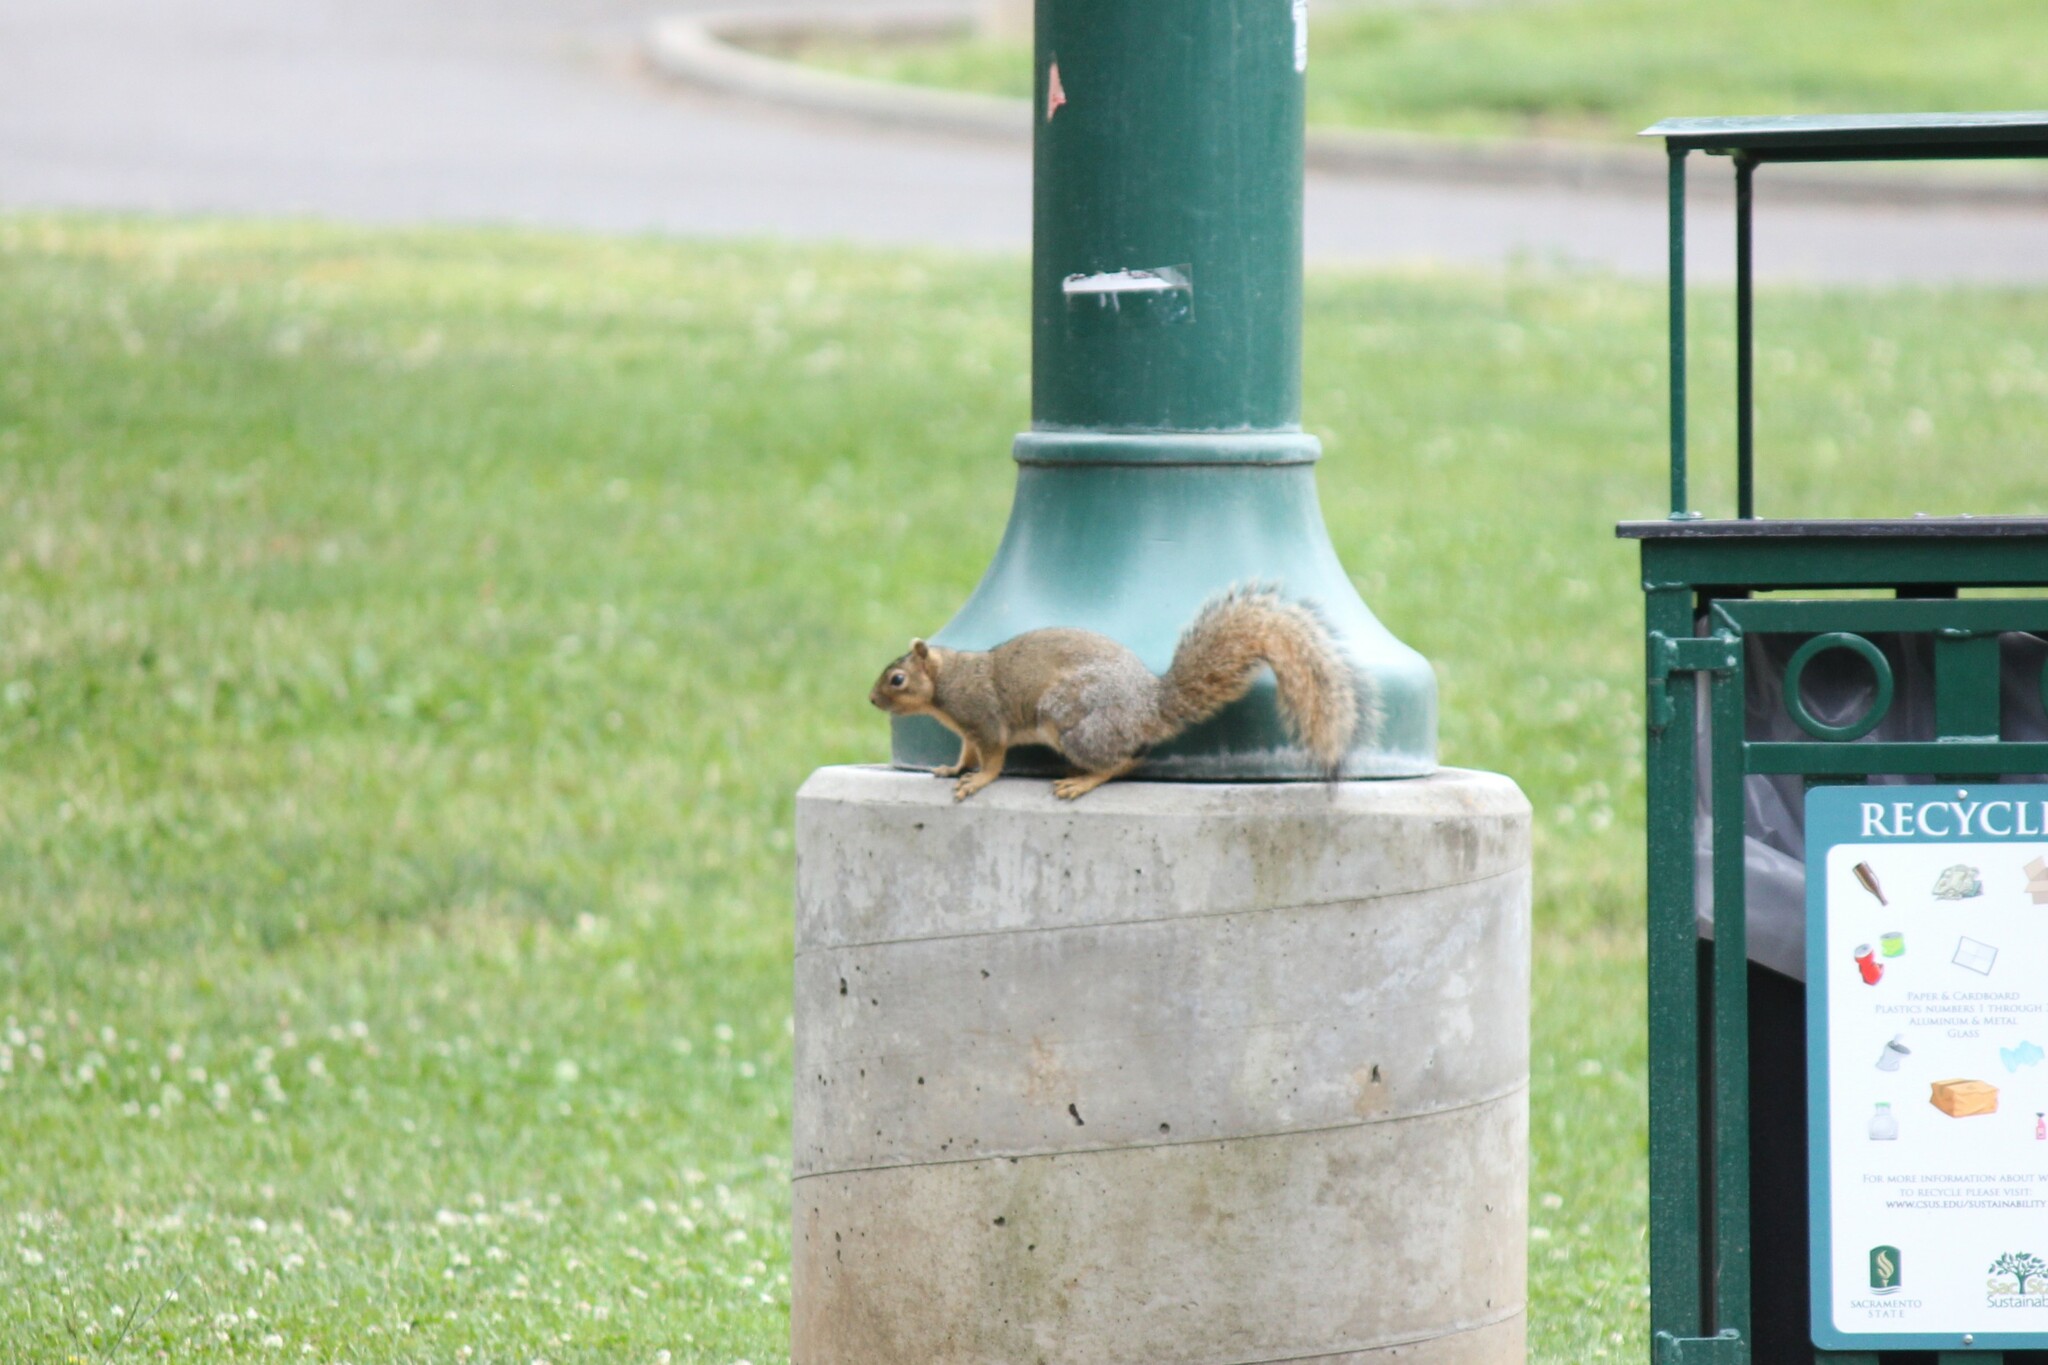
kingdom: Animalia
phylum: Chordata
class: Mammalia
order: Rodentia
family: Sciuridae
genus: Sciurus
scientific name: Sciurus niger
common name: Fox squirrel
